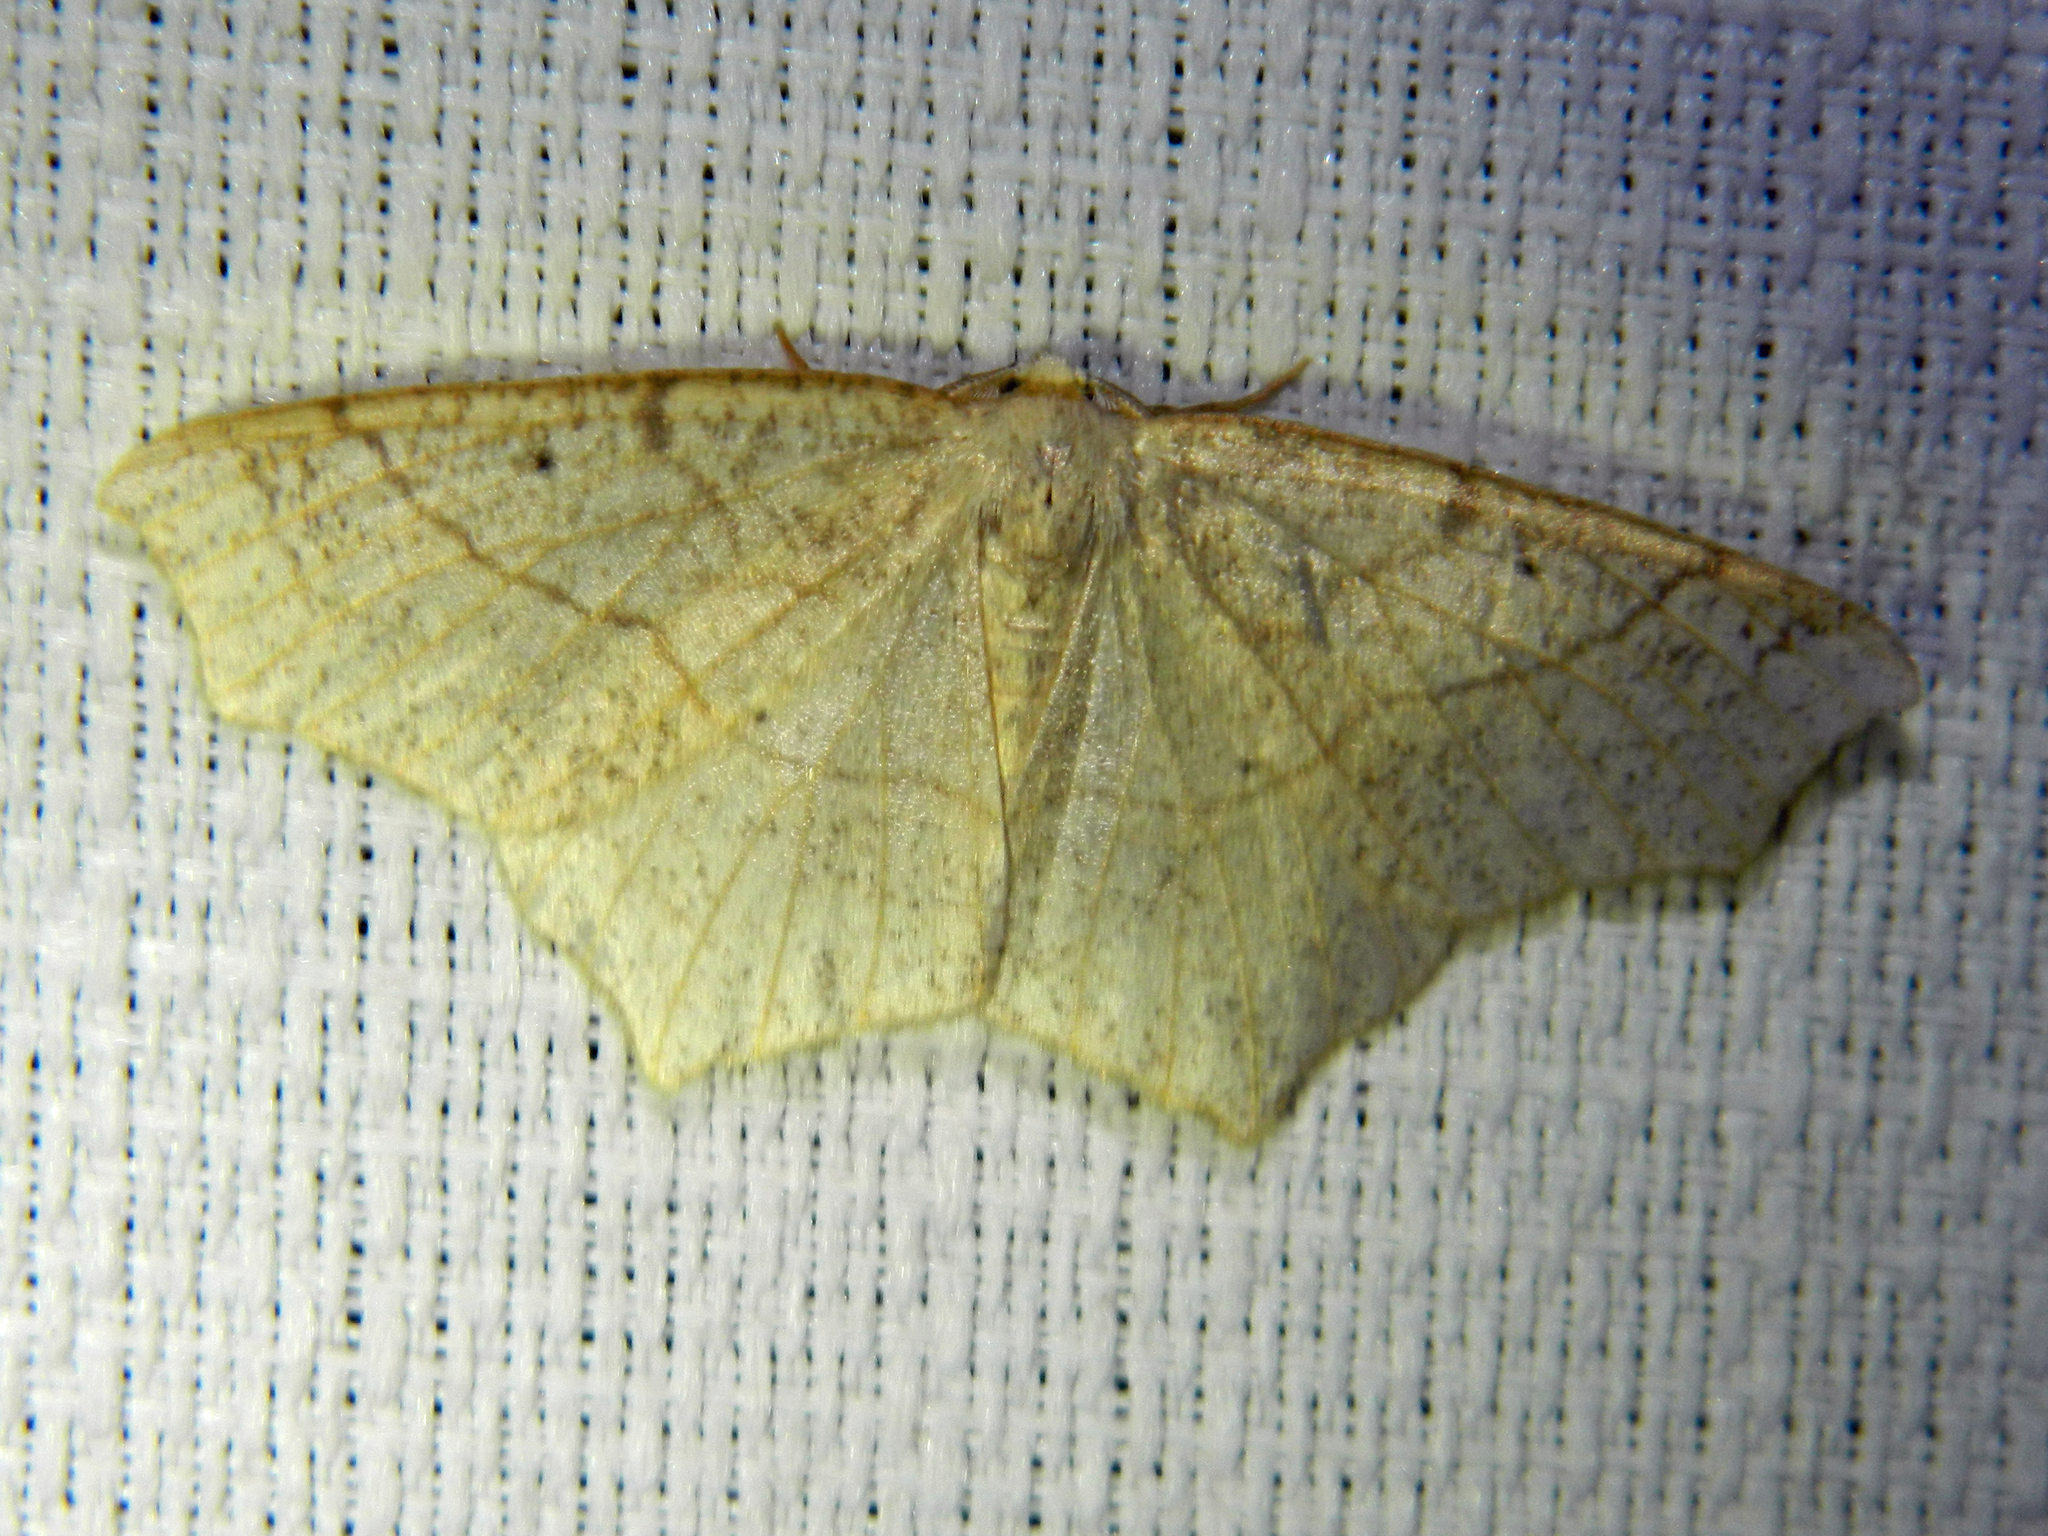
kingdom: Animalia
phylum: Arthropoda
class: Insecta
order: Lepidoptera
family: Geometridae
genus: Besma
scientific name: Besma quercivoraria
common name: Oak besma
